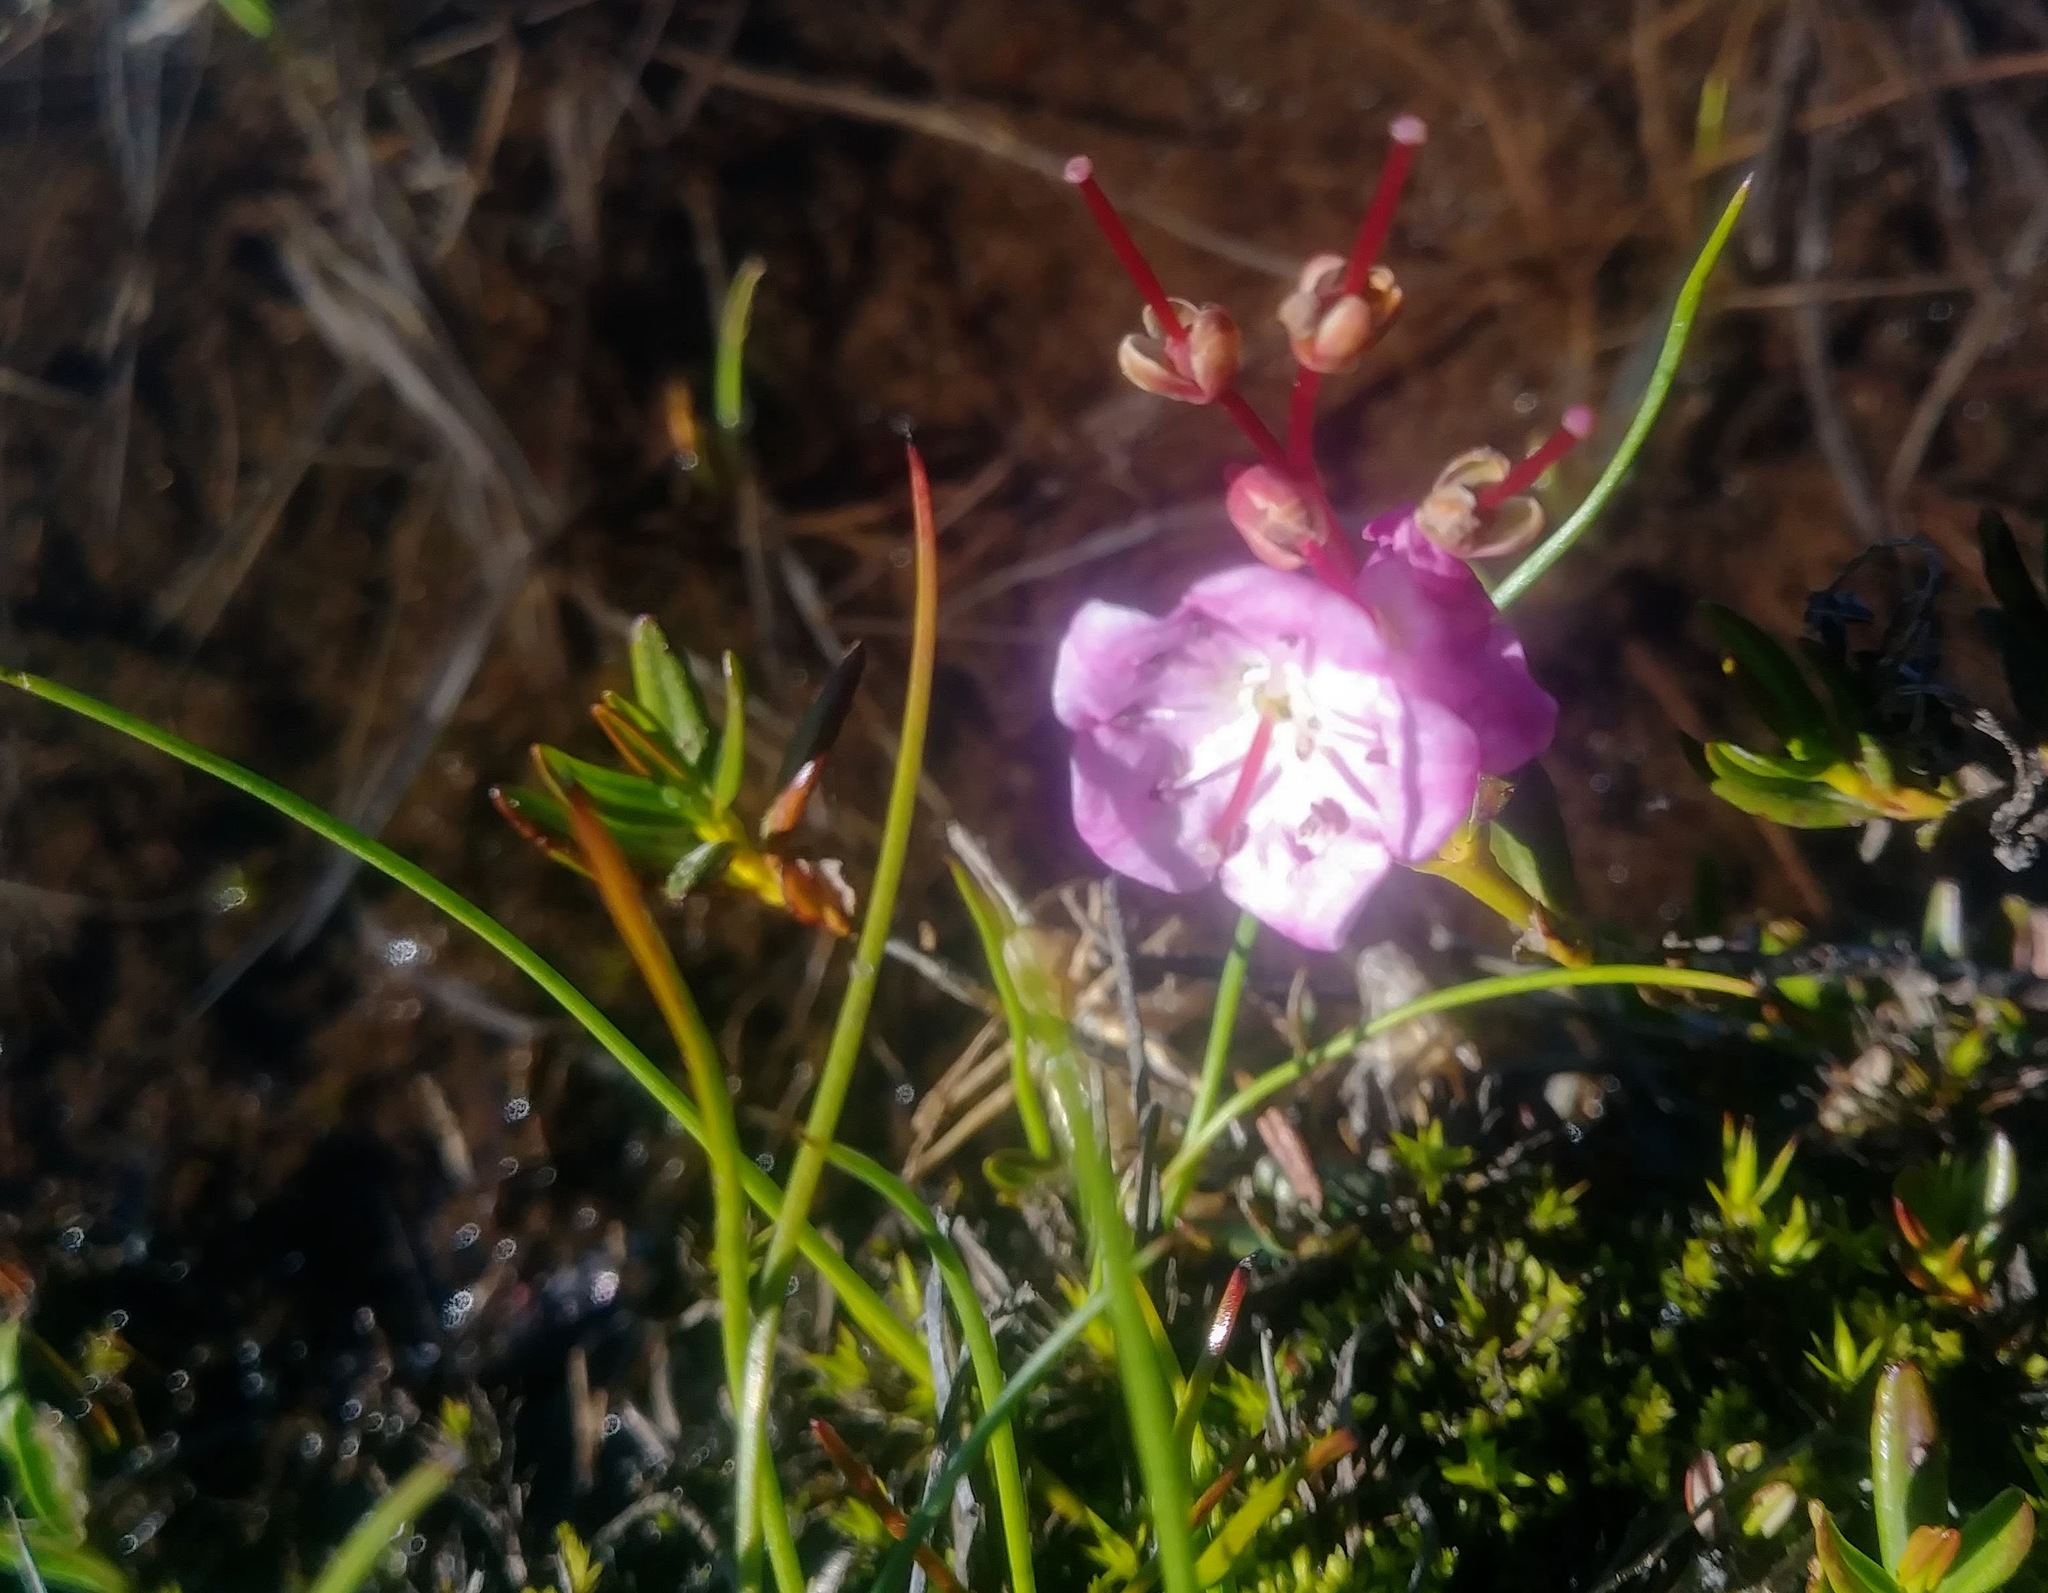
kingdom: Plantae
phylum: Tracheophyta
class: Magnoliopsida
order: Ericales
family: Ericaceae
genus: Kalmia
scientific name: Kalmia microphylla
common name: Alpine bog laurel
